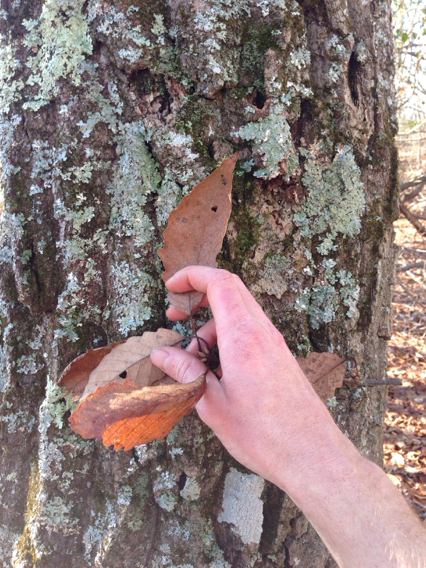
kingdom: Plantae
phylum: Tracheophyta
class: Magnoliopsida
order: Fagales
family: Fagaceae
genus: Quercus
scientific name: Quercus montana
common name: Chestnut oak
